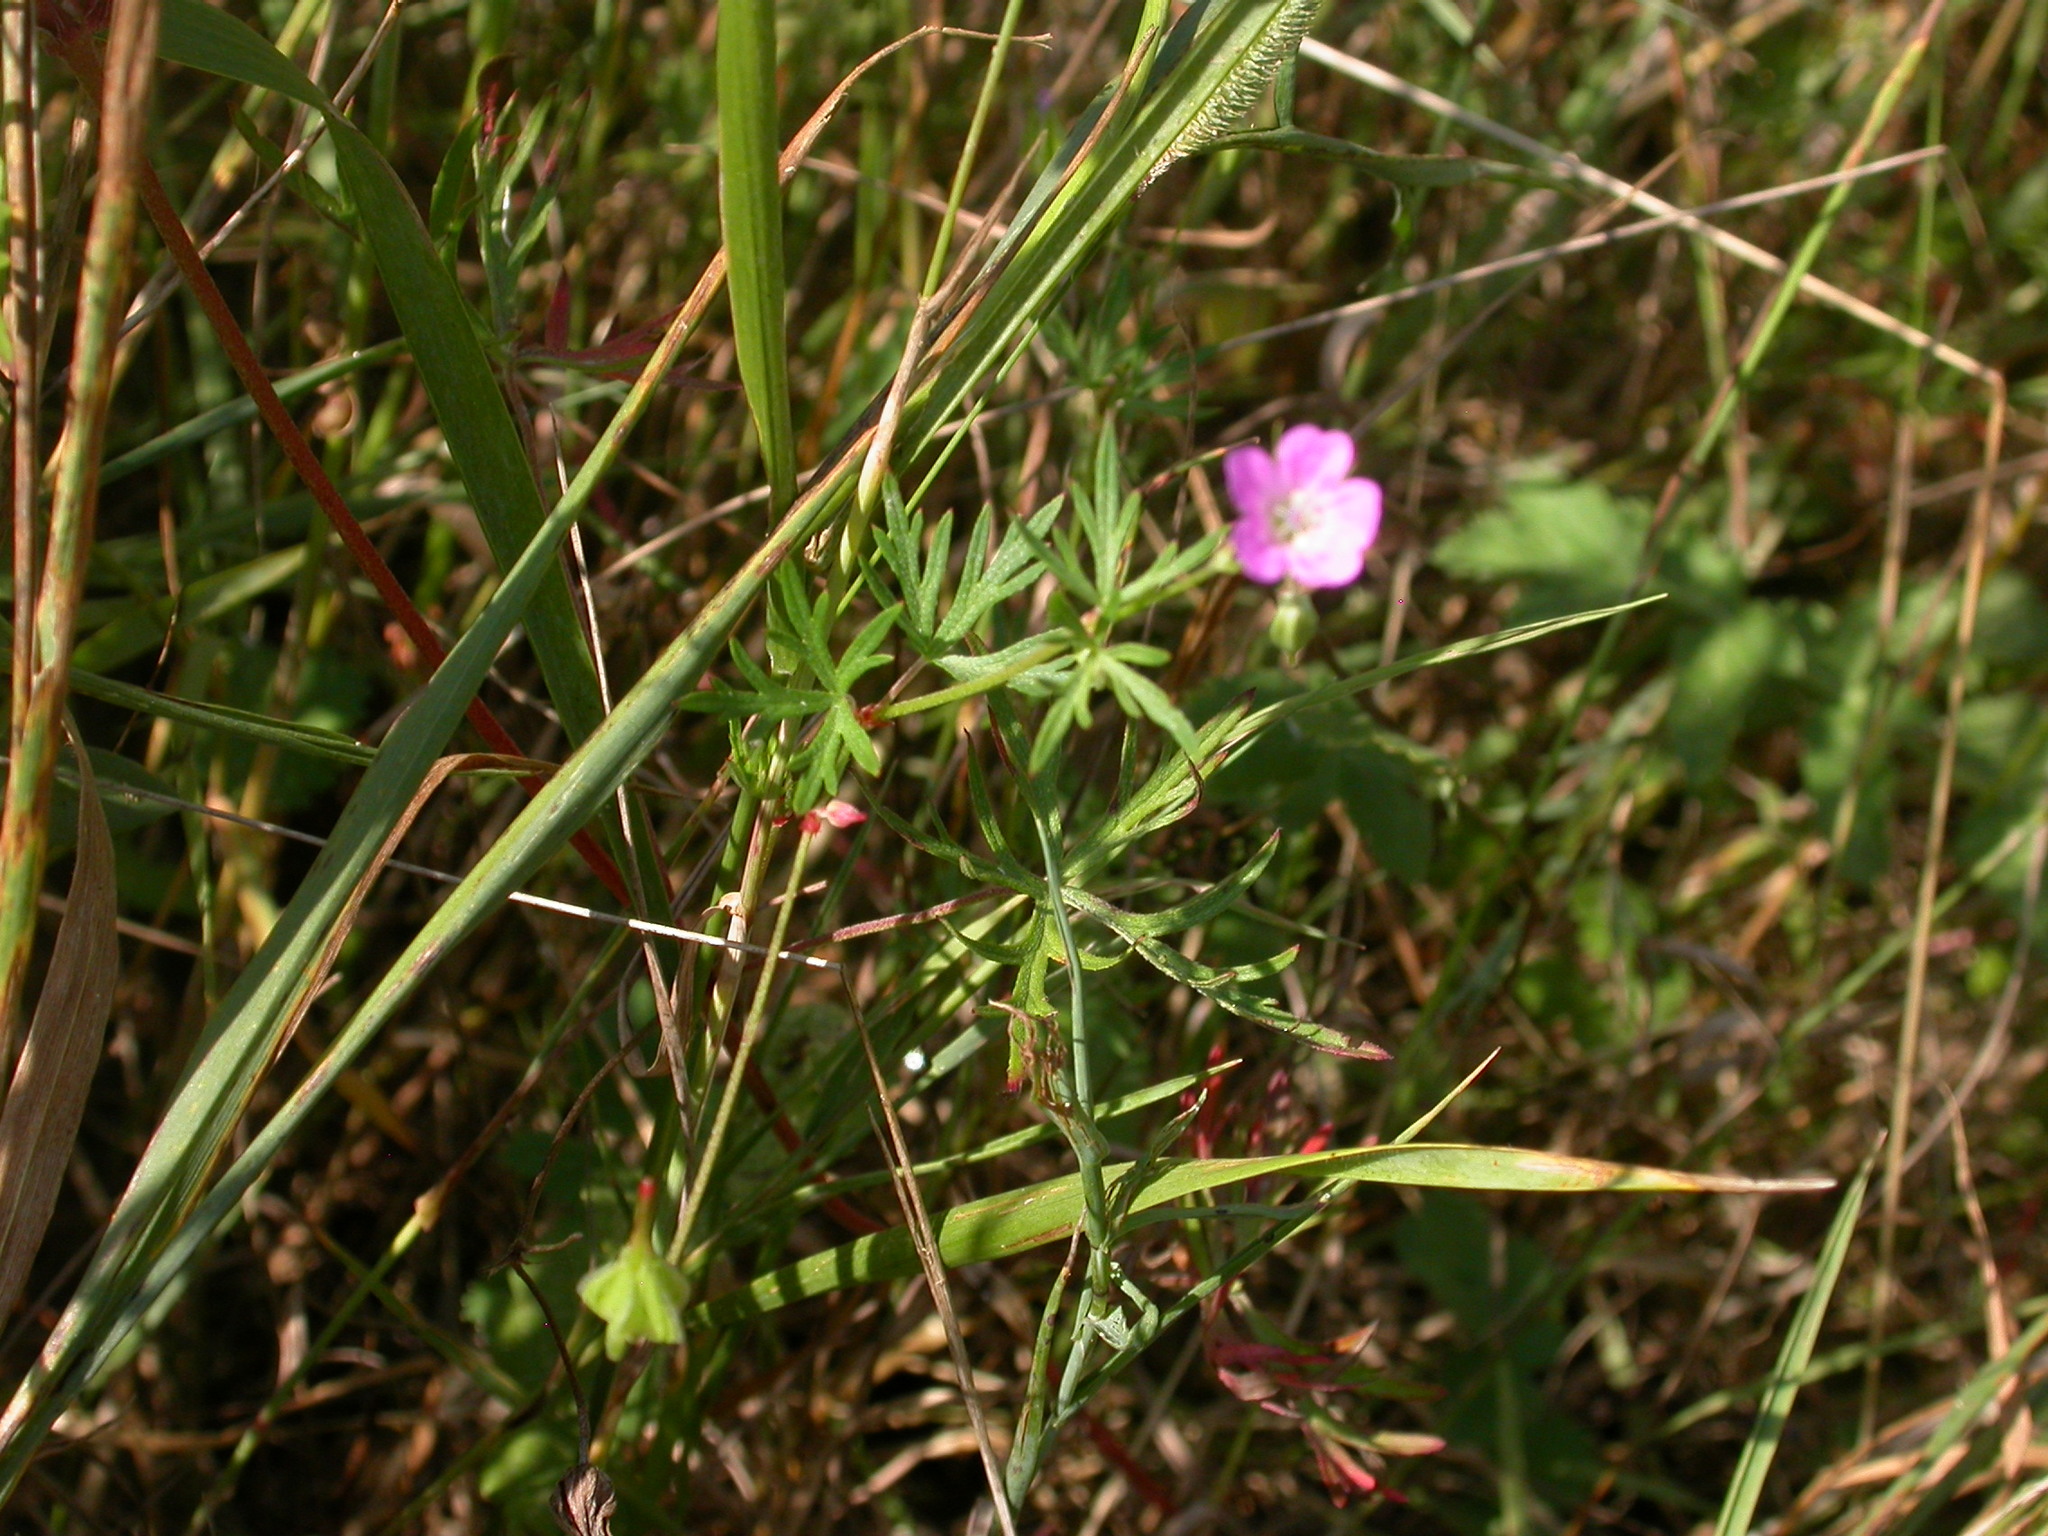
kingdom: Plantae
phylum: Tracheophyta
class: Magnoliopsida
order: Geraniales
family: Geraniaceae
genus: Geranium
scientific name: Geranium dissectum
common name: Cut-leaved crane's-bill
